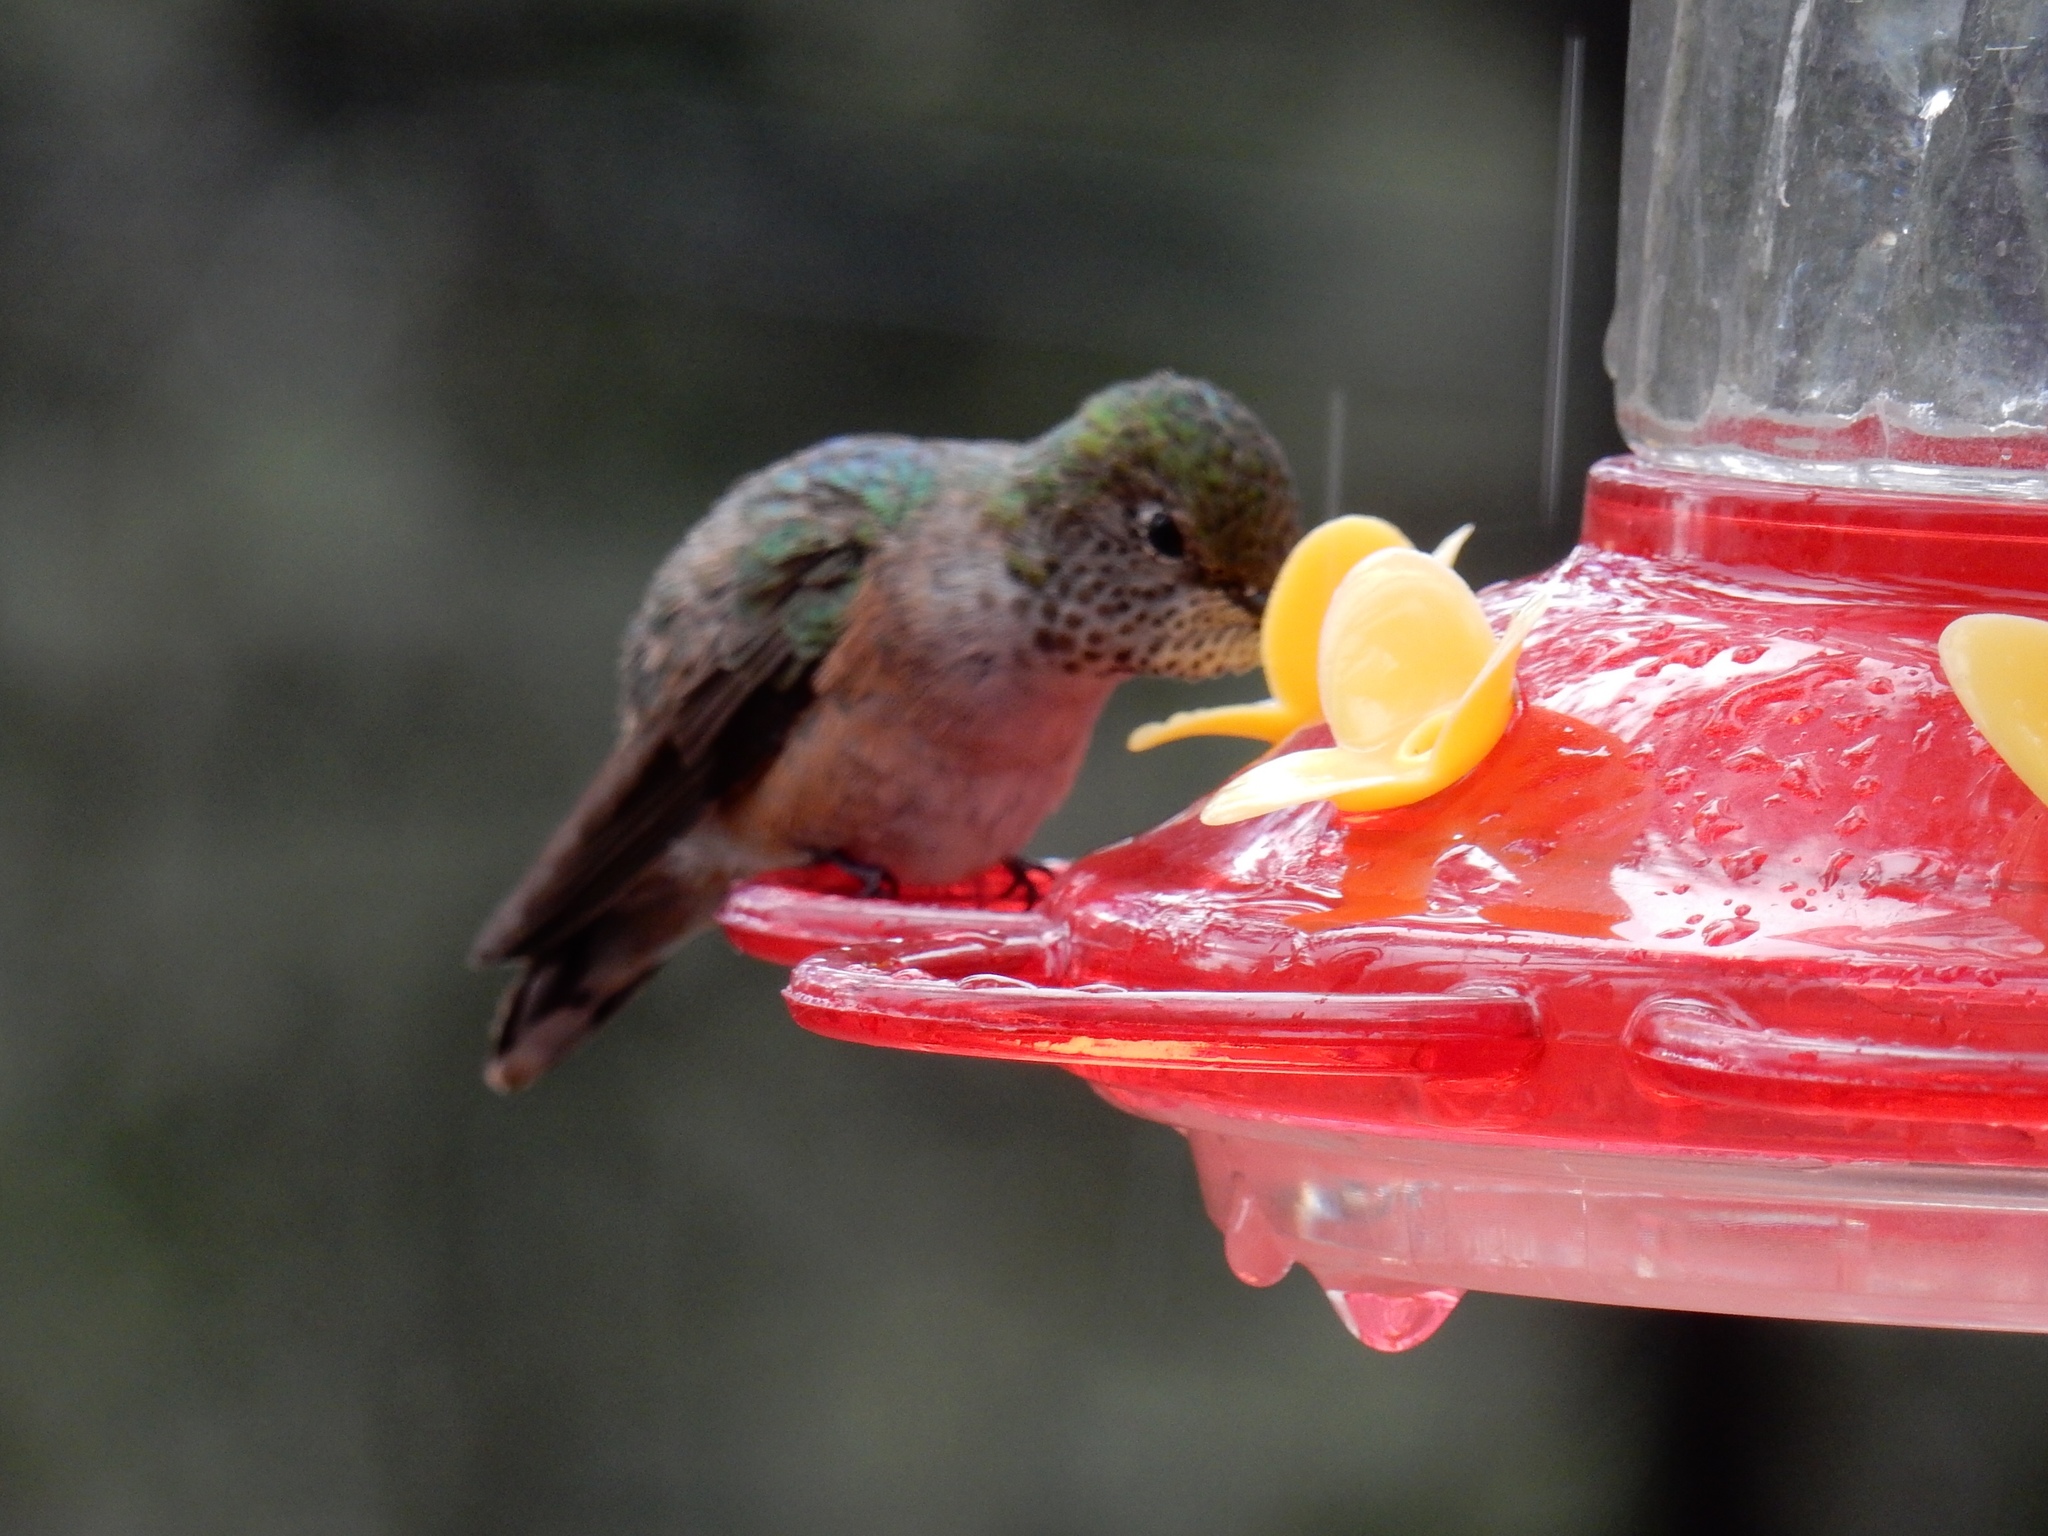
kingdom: Animalia
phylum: Chordata
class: Aves
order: Apodiformes
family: Trochilidae
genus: Selasphorus
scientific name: Selasphorus platycercus
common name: Broad-tailed hummingbird
